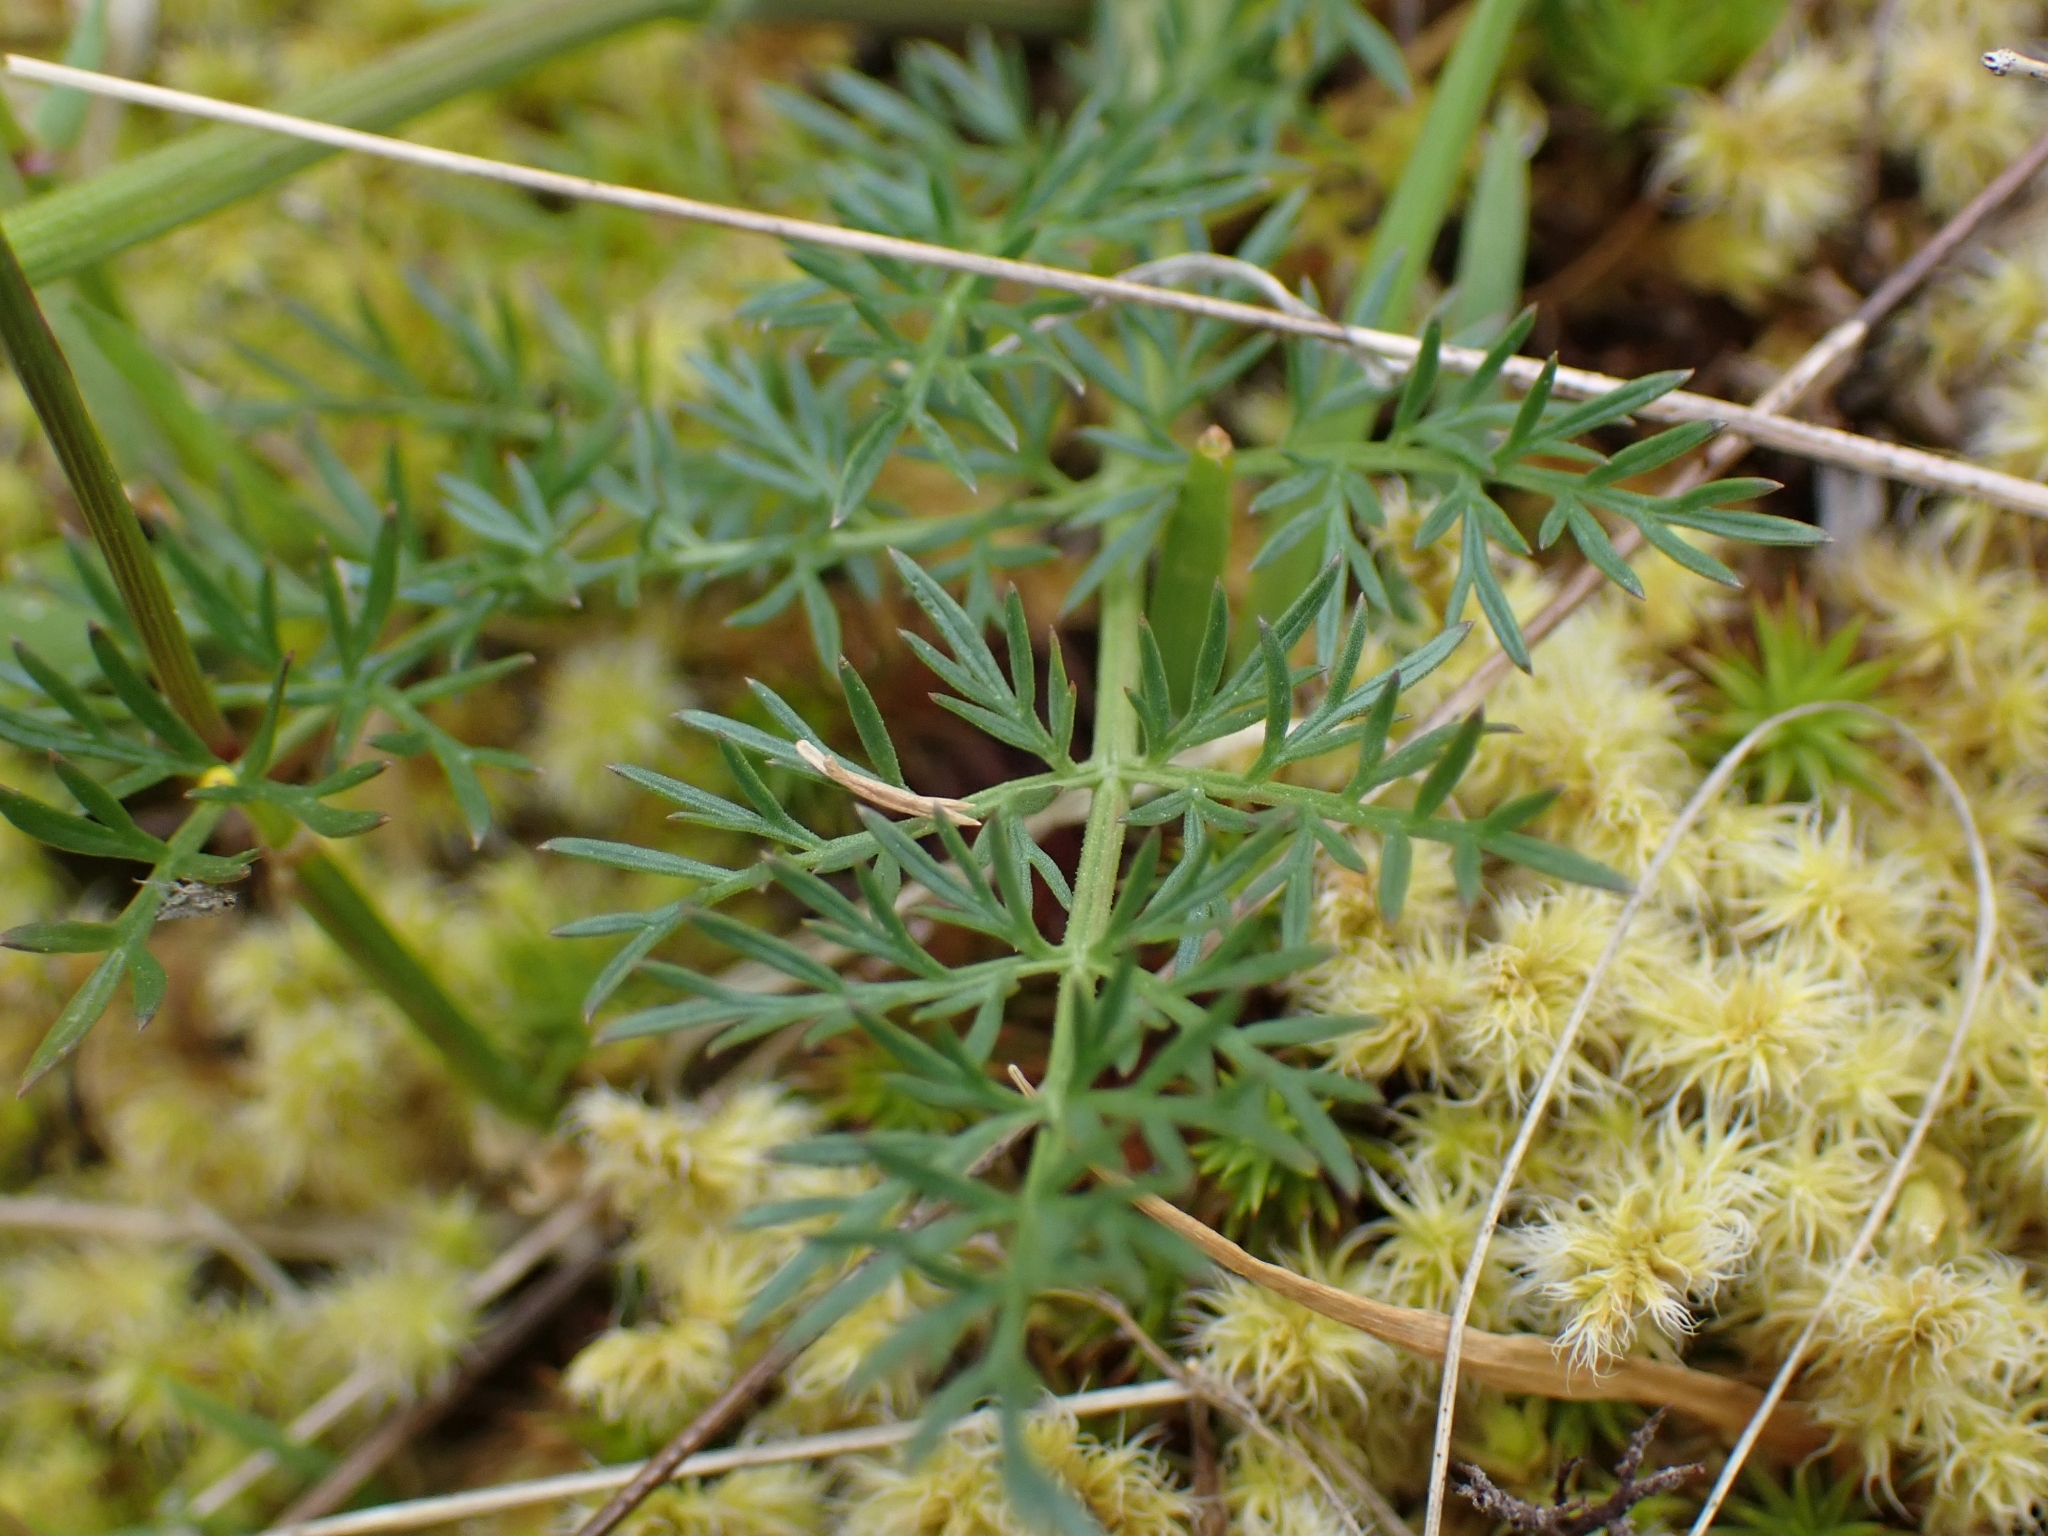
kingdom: Plantae
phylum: Tracheophyta
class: Magnoliopsida
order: Apiales
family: Apiaceae
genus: Lomatium
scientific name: Lomatium utriculatum
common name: Fine-leaf desert-parsley
